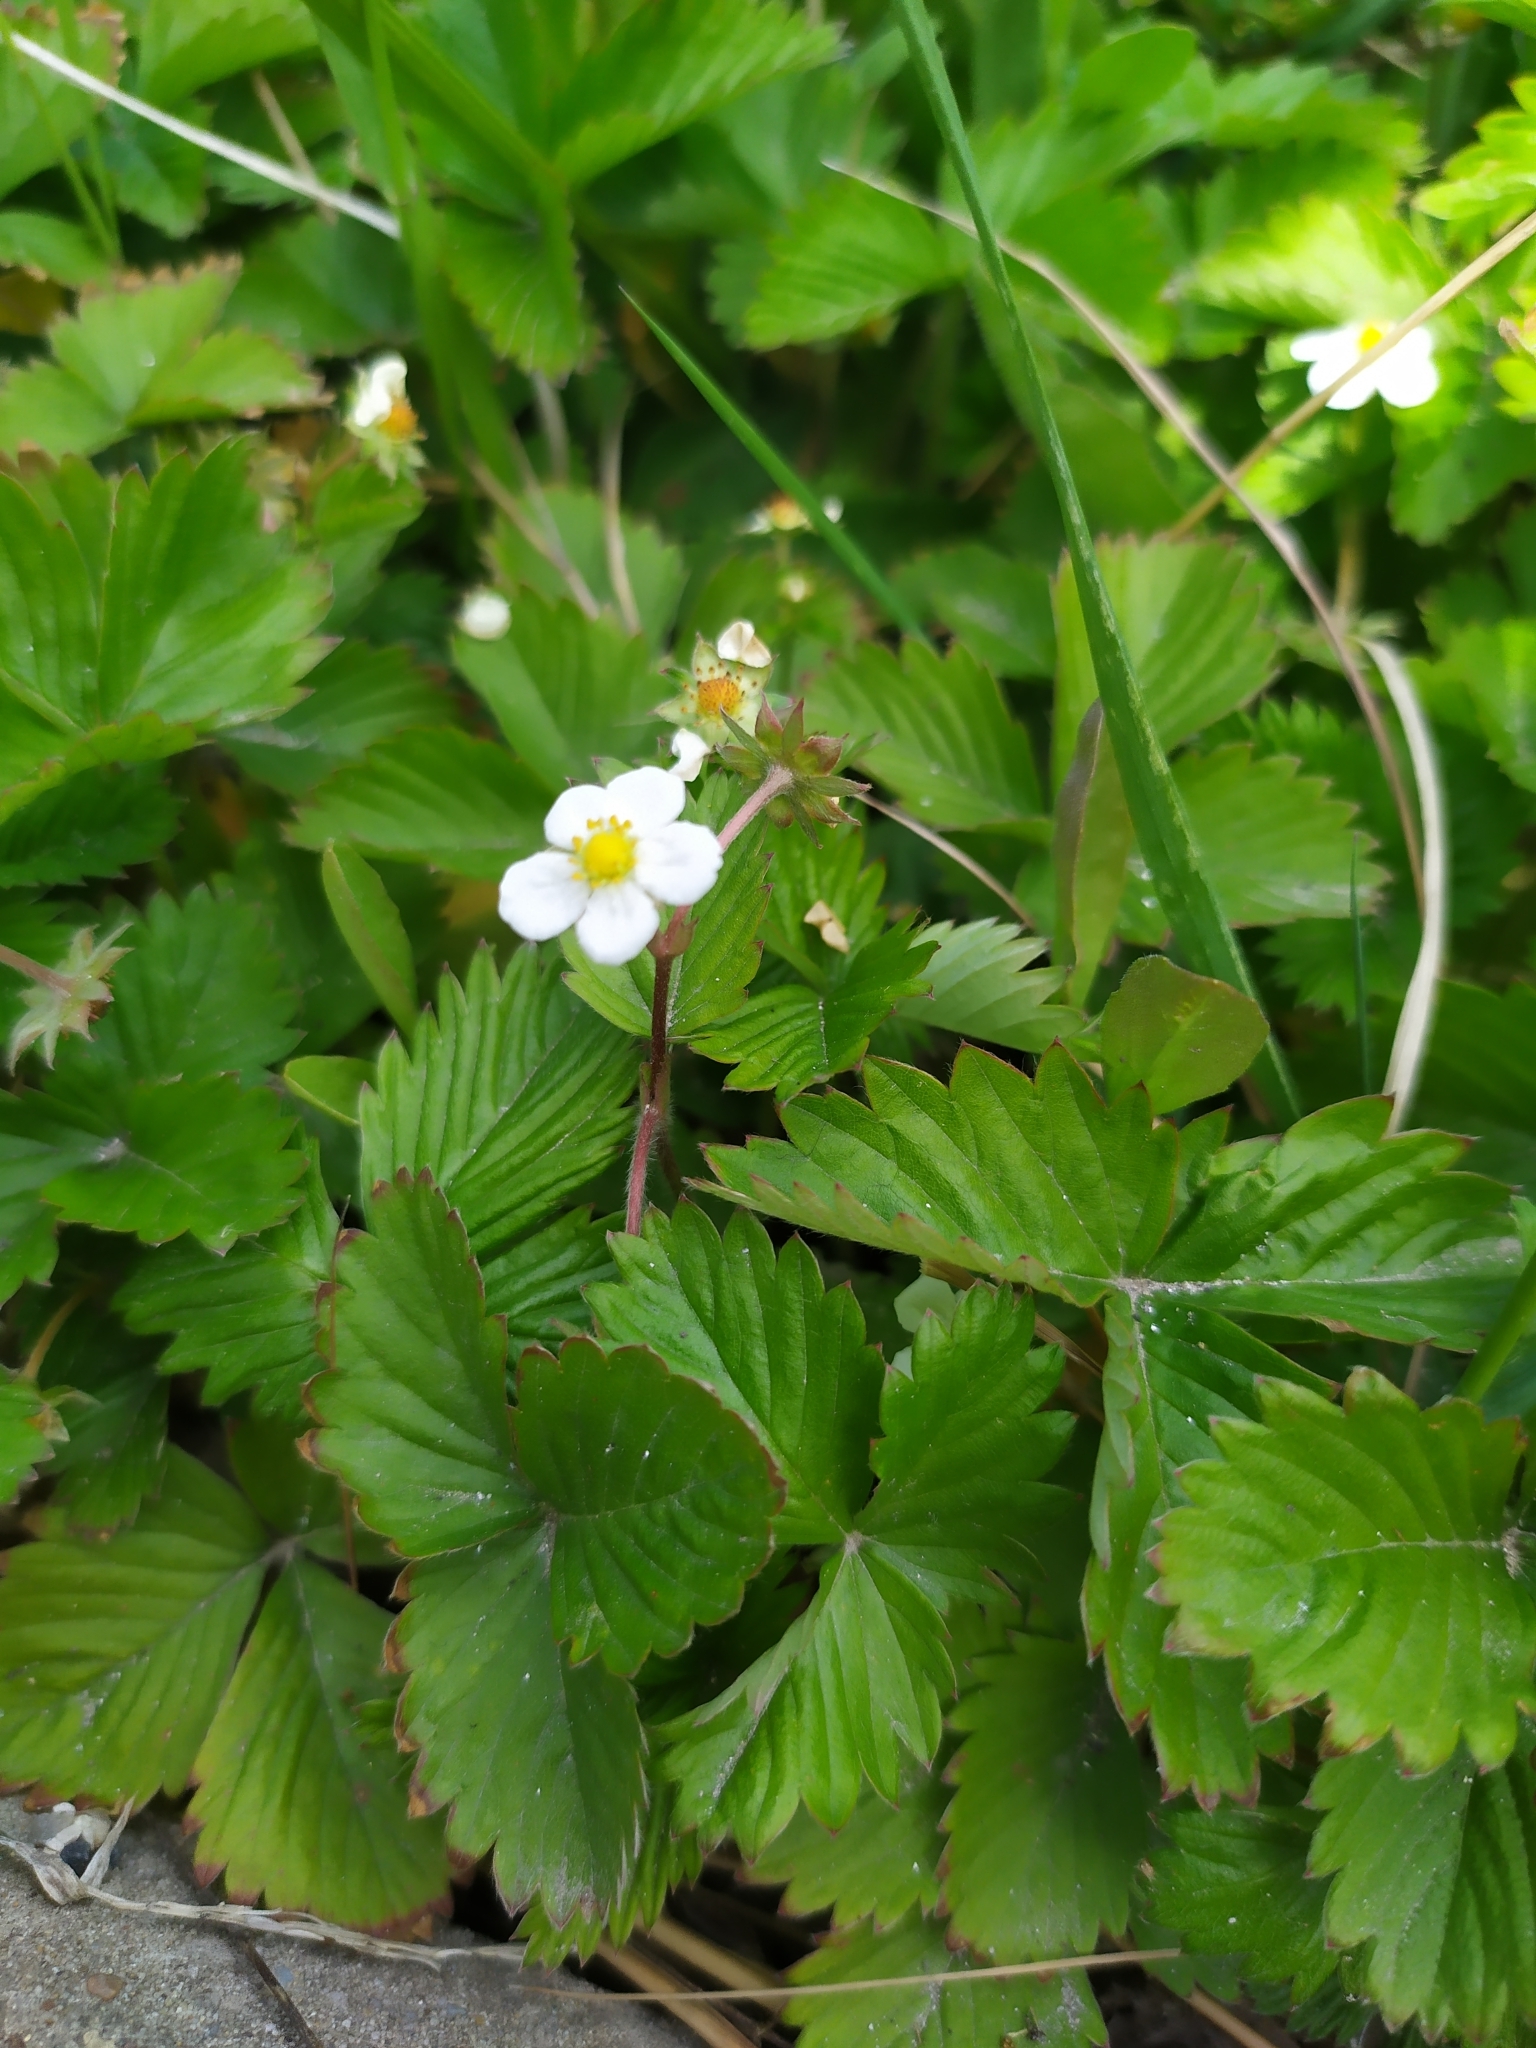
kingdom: Plantae
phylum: Tracheophyta
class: Magnoliopsida
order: Rosales
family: Rosaceae
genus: Fragaria
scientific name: Fragaria vesca
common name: Wild strawberry
